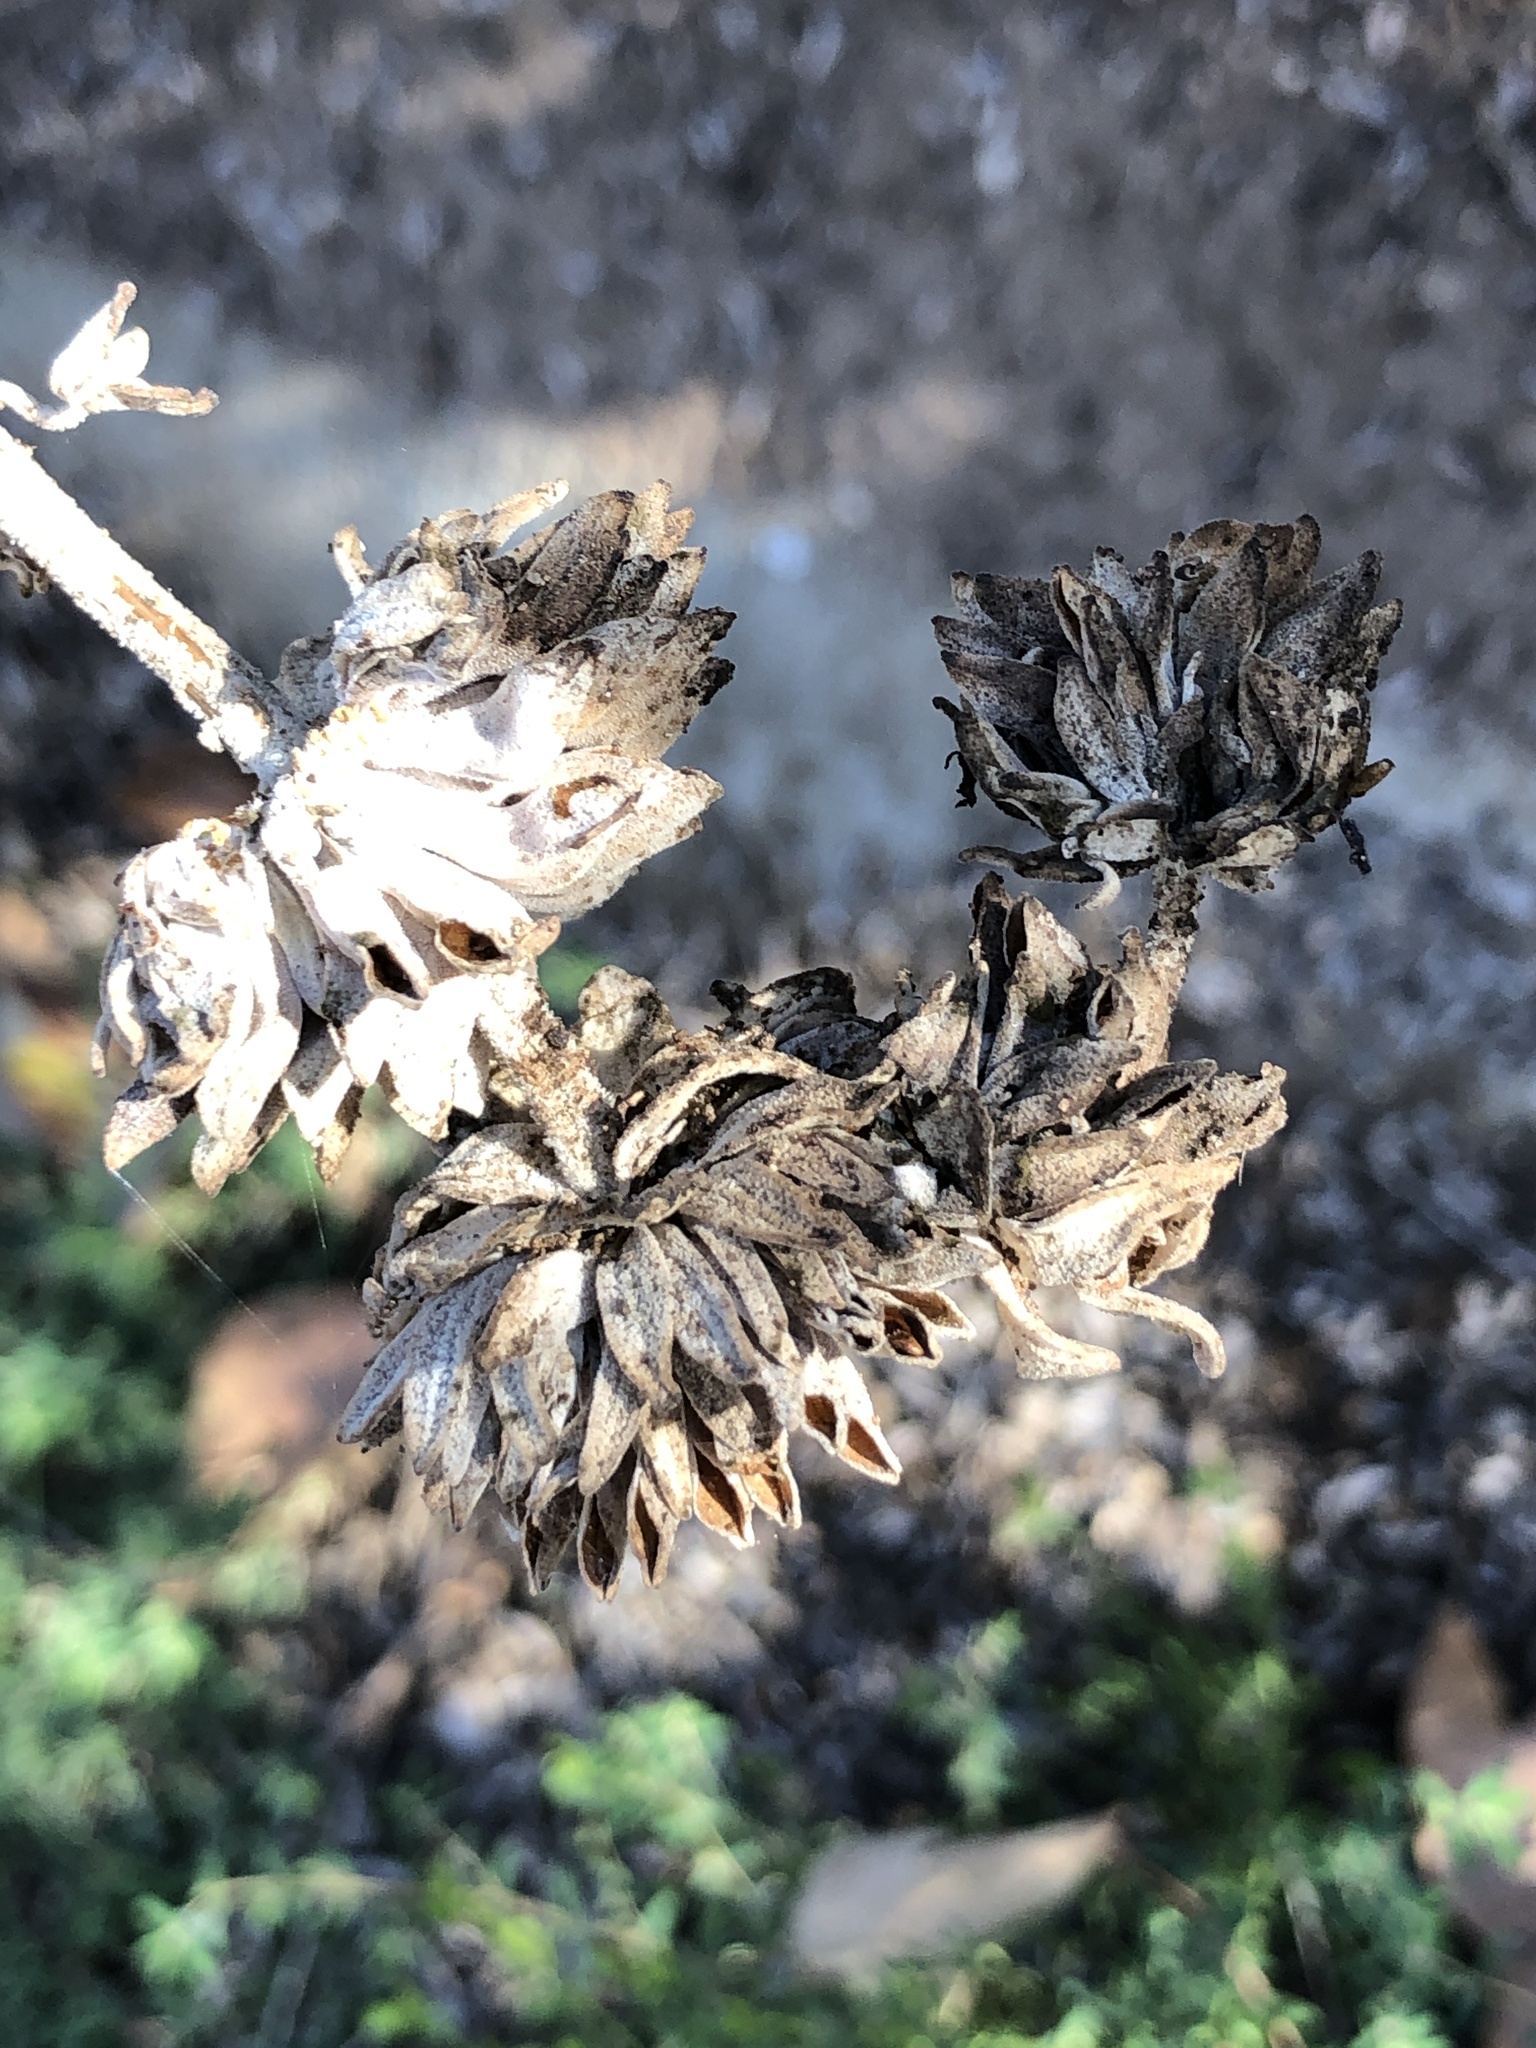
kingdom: Plantae
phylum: Tracheophyta
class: Magnoliopsida
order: Lamiales
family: Lamiaceae
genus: Salvia
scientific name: Salvia leucophylla
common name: Purple sage
